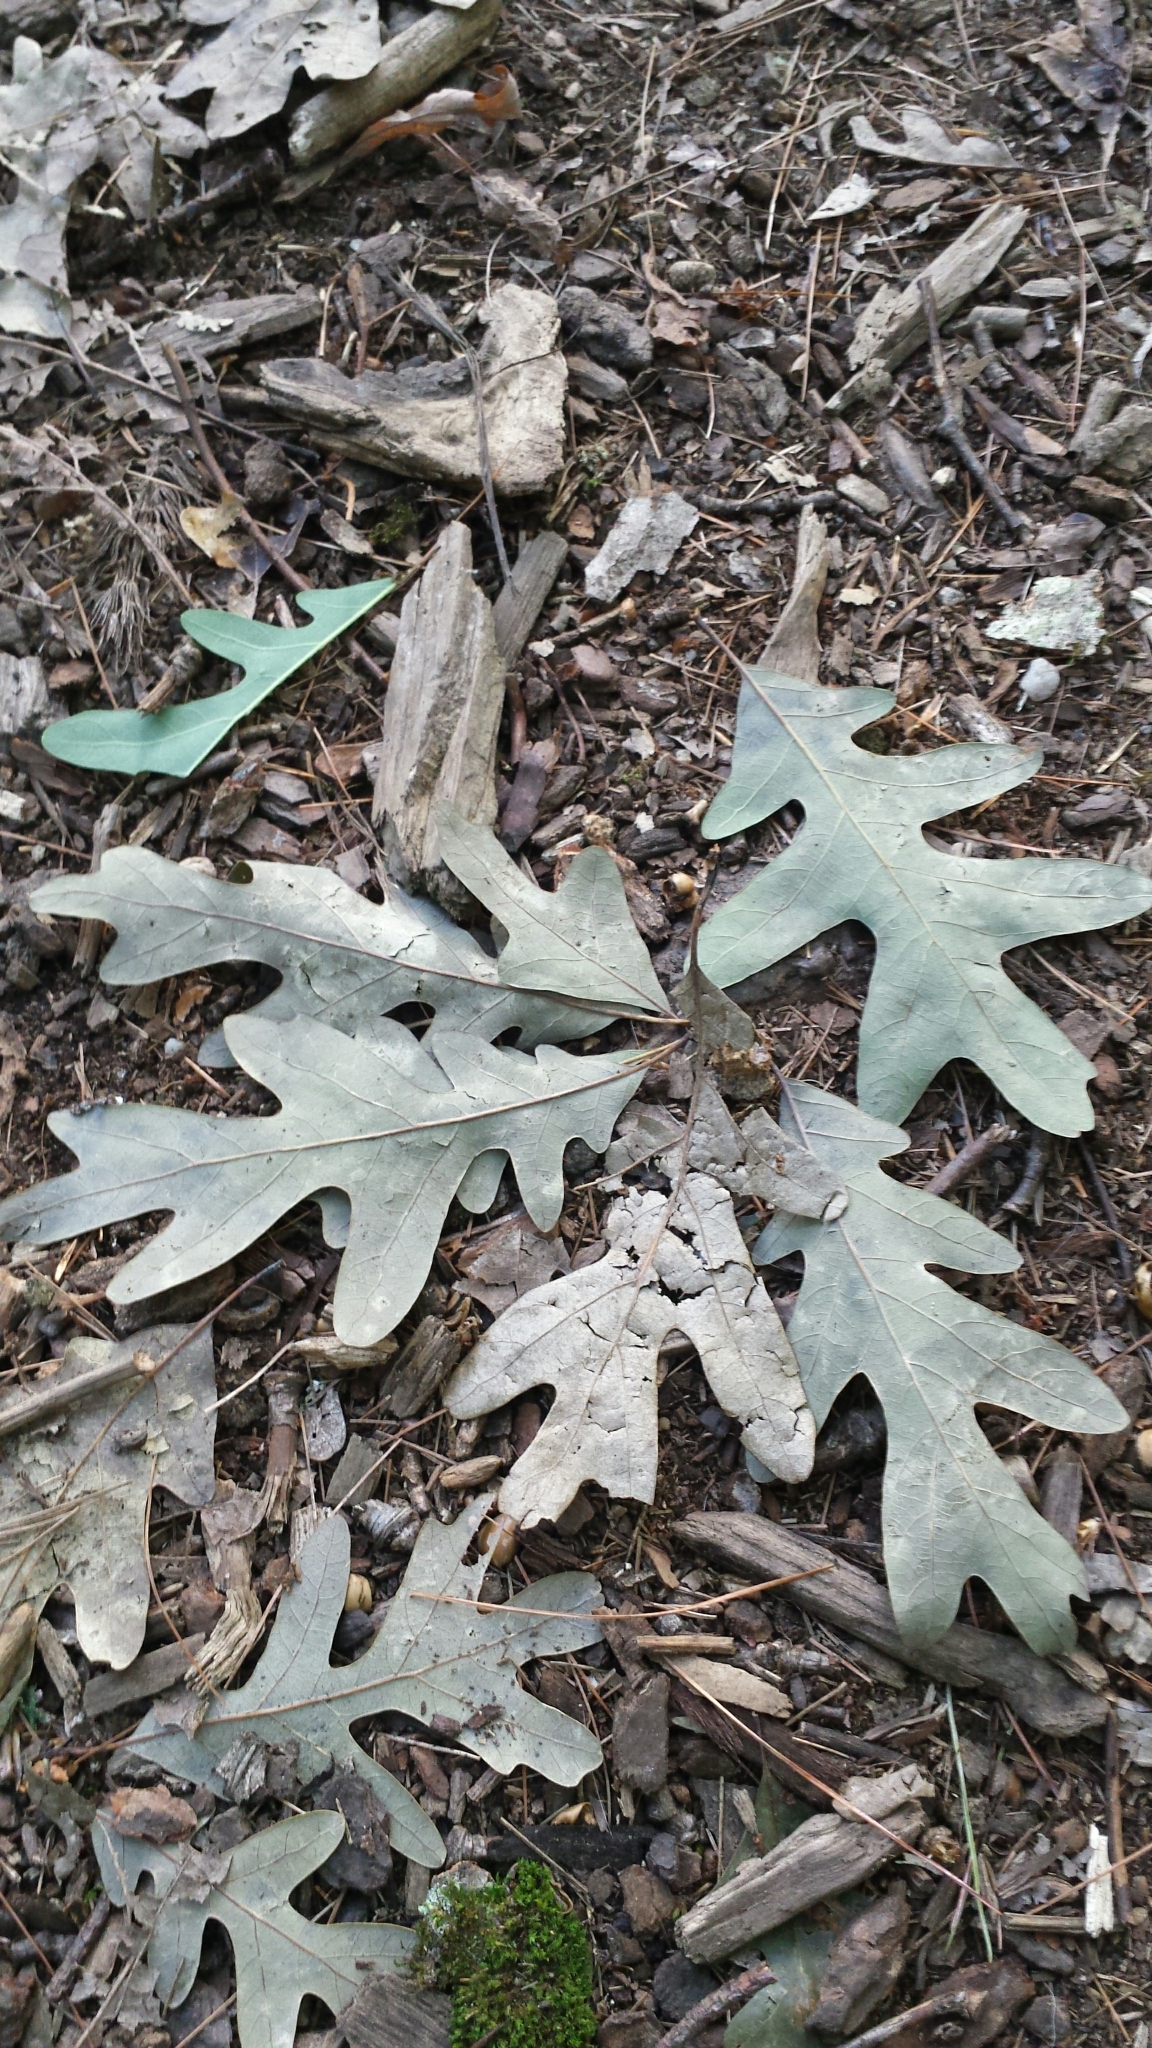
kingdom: Plantae
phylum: Tracheophyta
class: Magnoliopsida
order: Fagales
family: Fagaceae
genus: Quercus
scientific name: Quercus alba
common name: White oak
